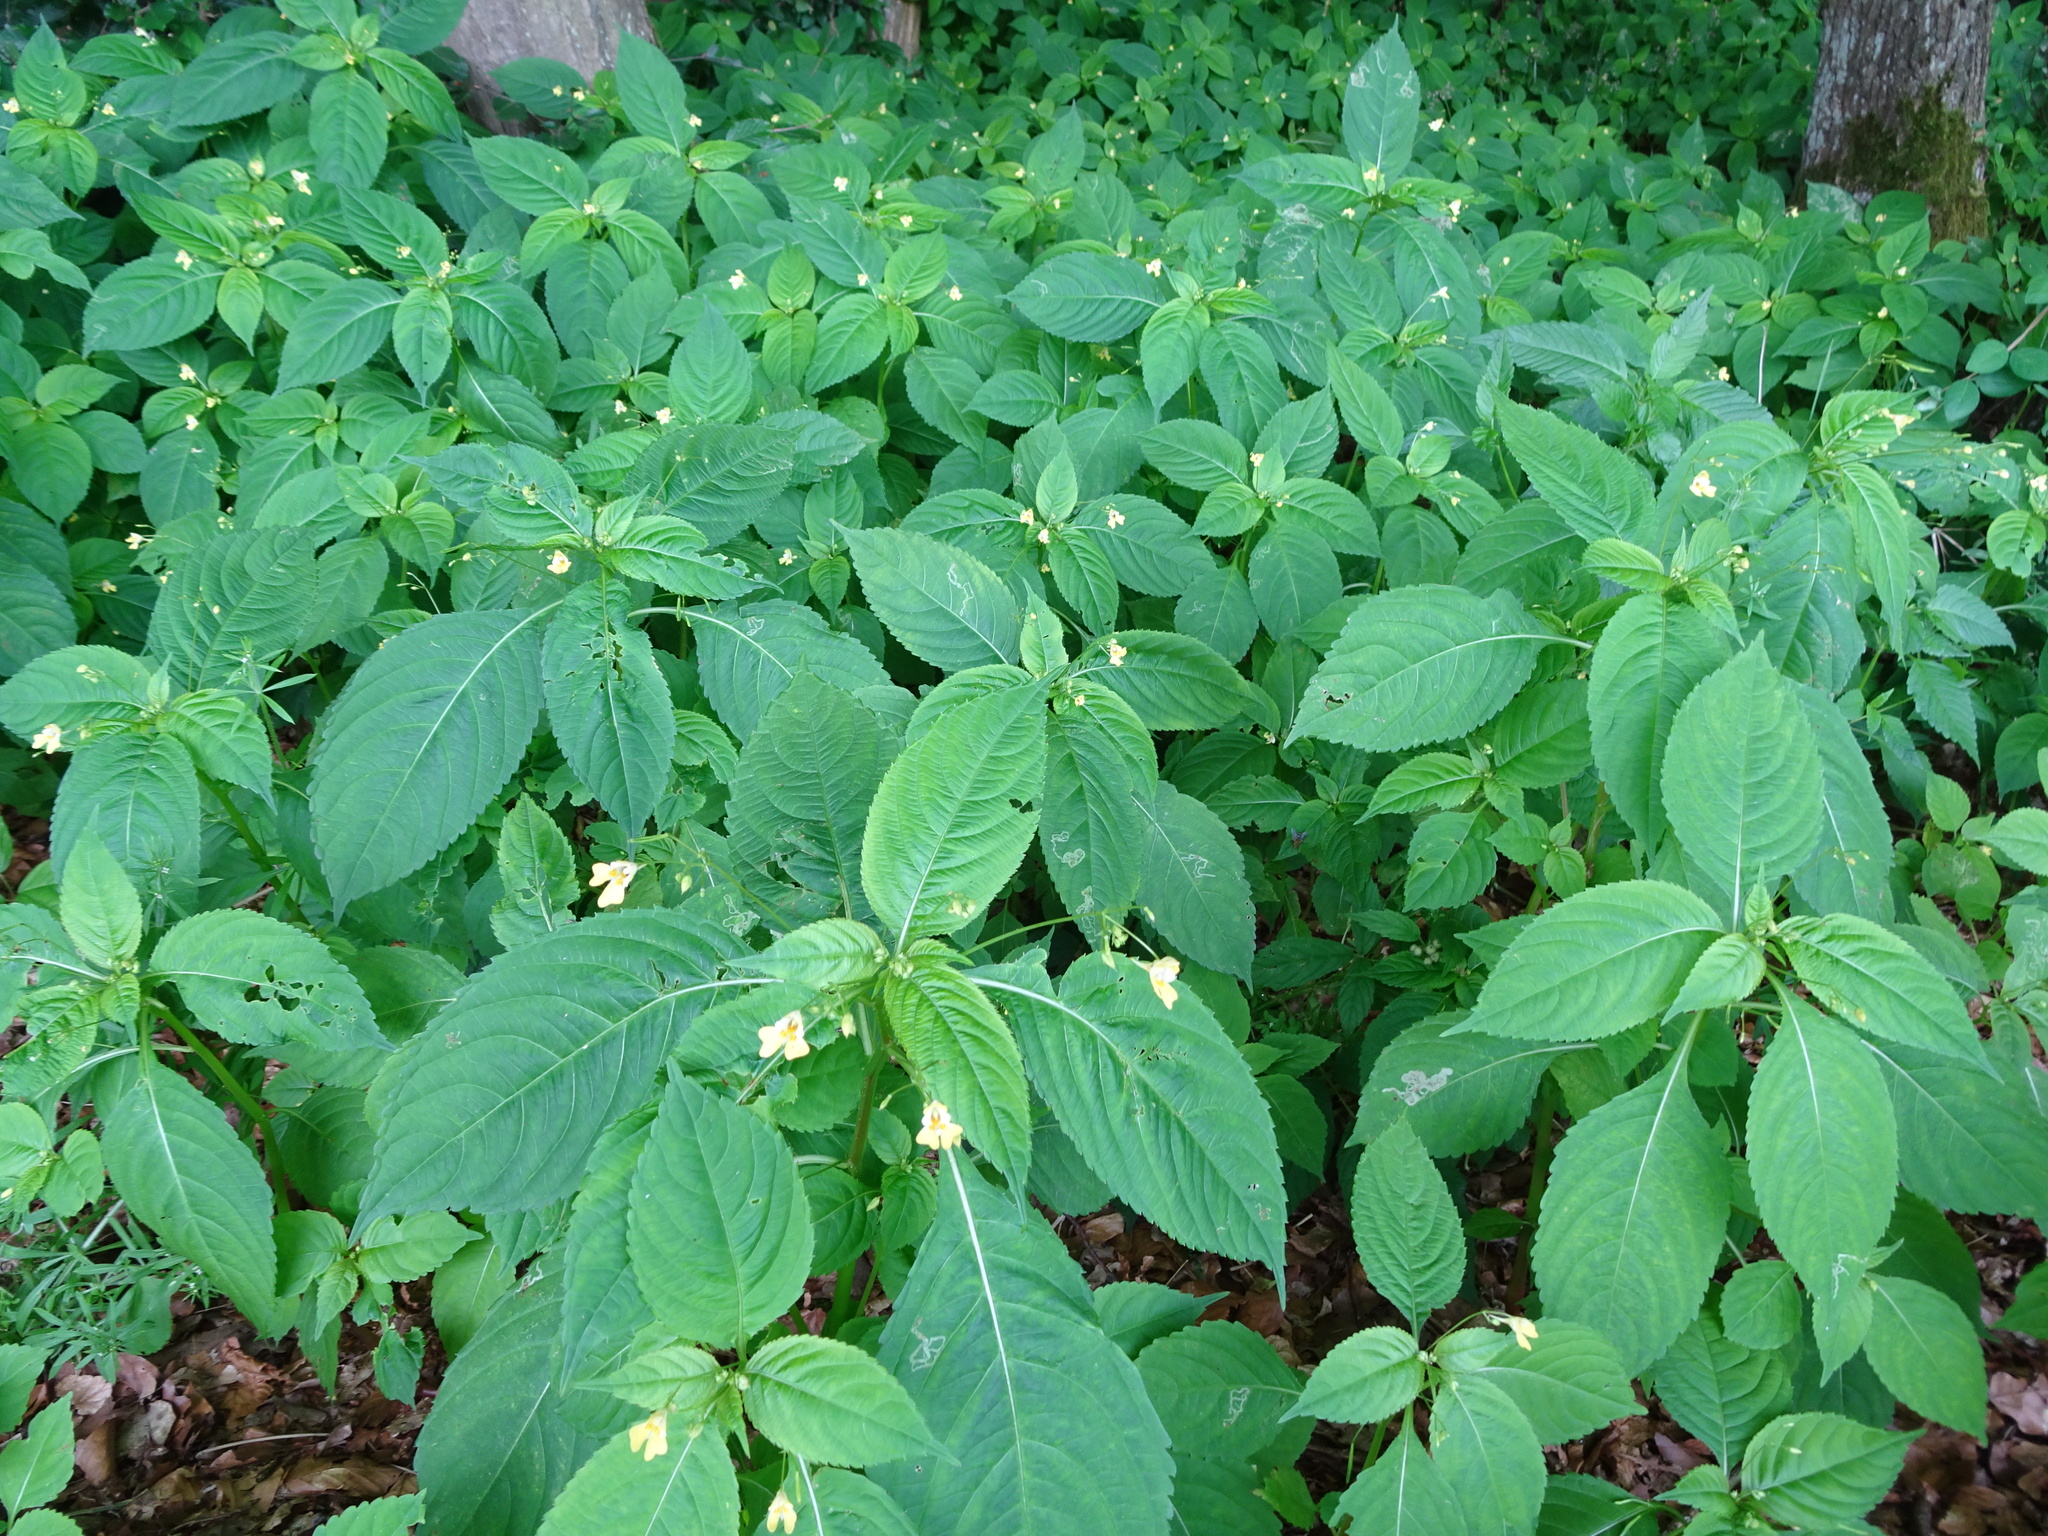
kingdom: Plantae
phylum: Tracheophyta
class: Magnoliopsida
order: Ericales
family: Balsaminaceae
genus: Impatiens
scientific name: Impatiens parviflora
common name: Small balsam
